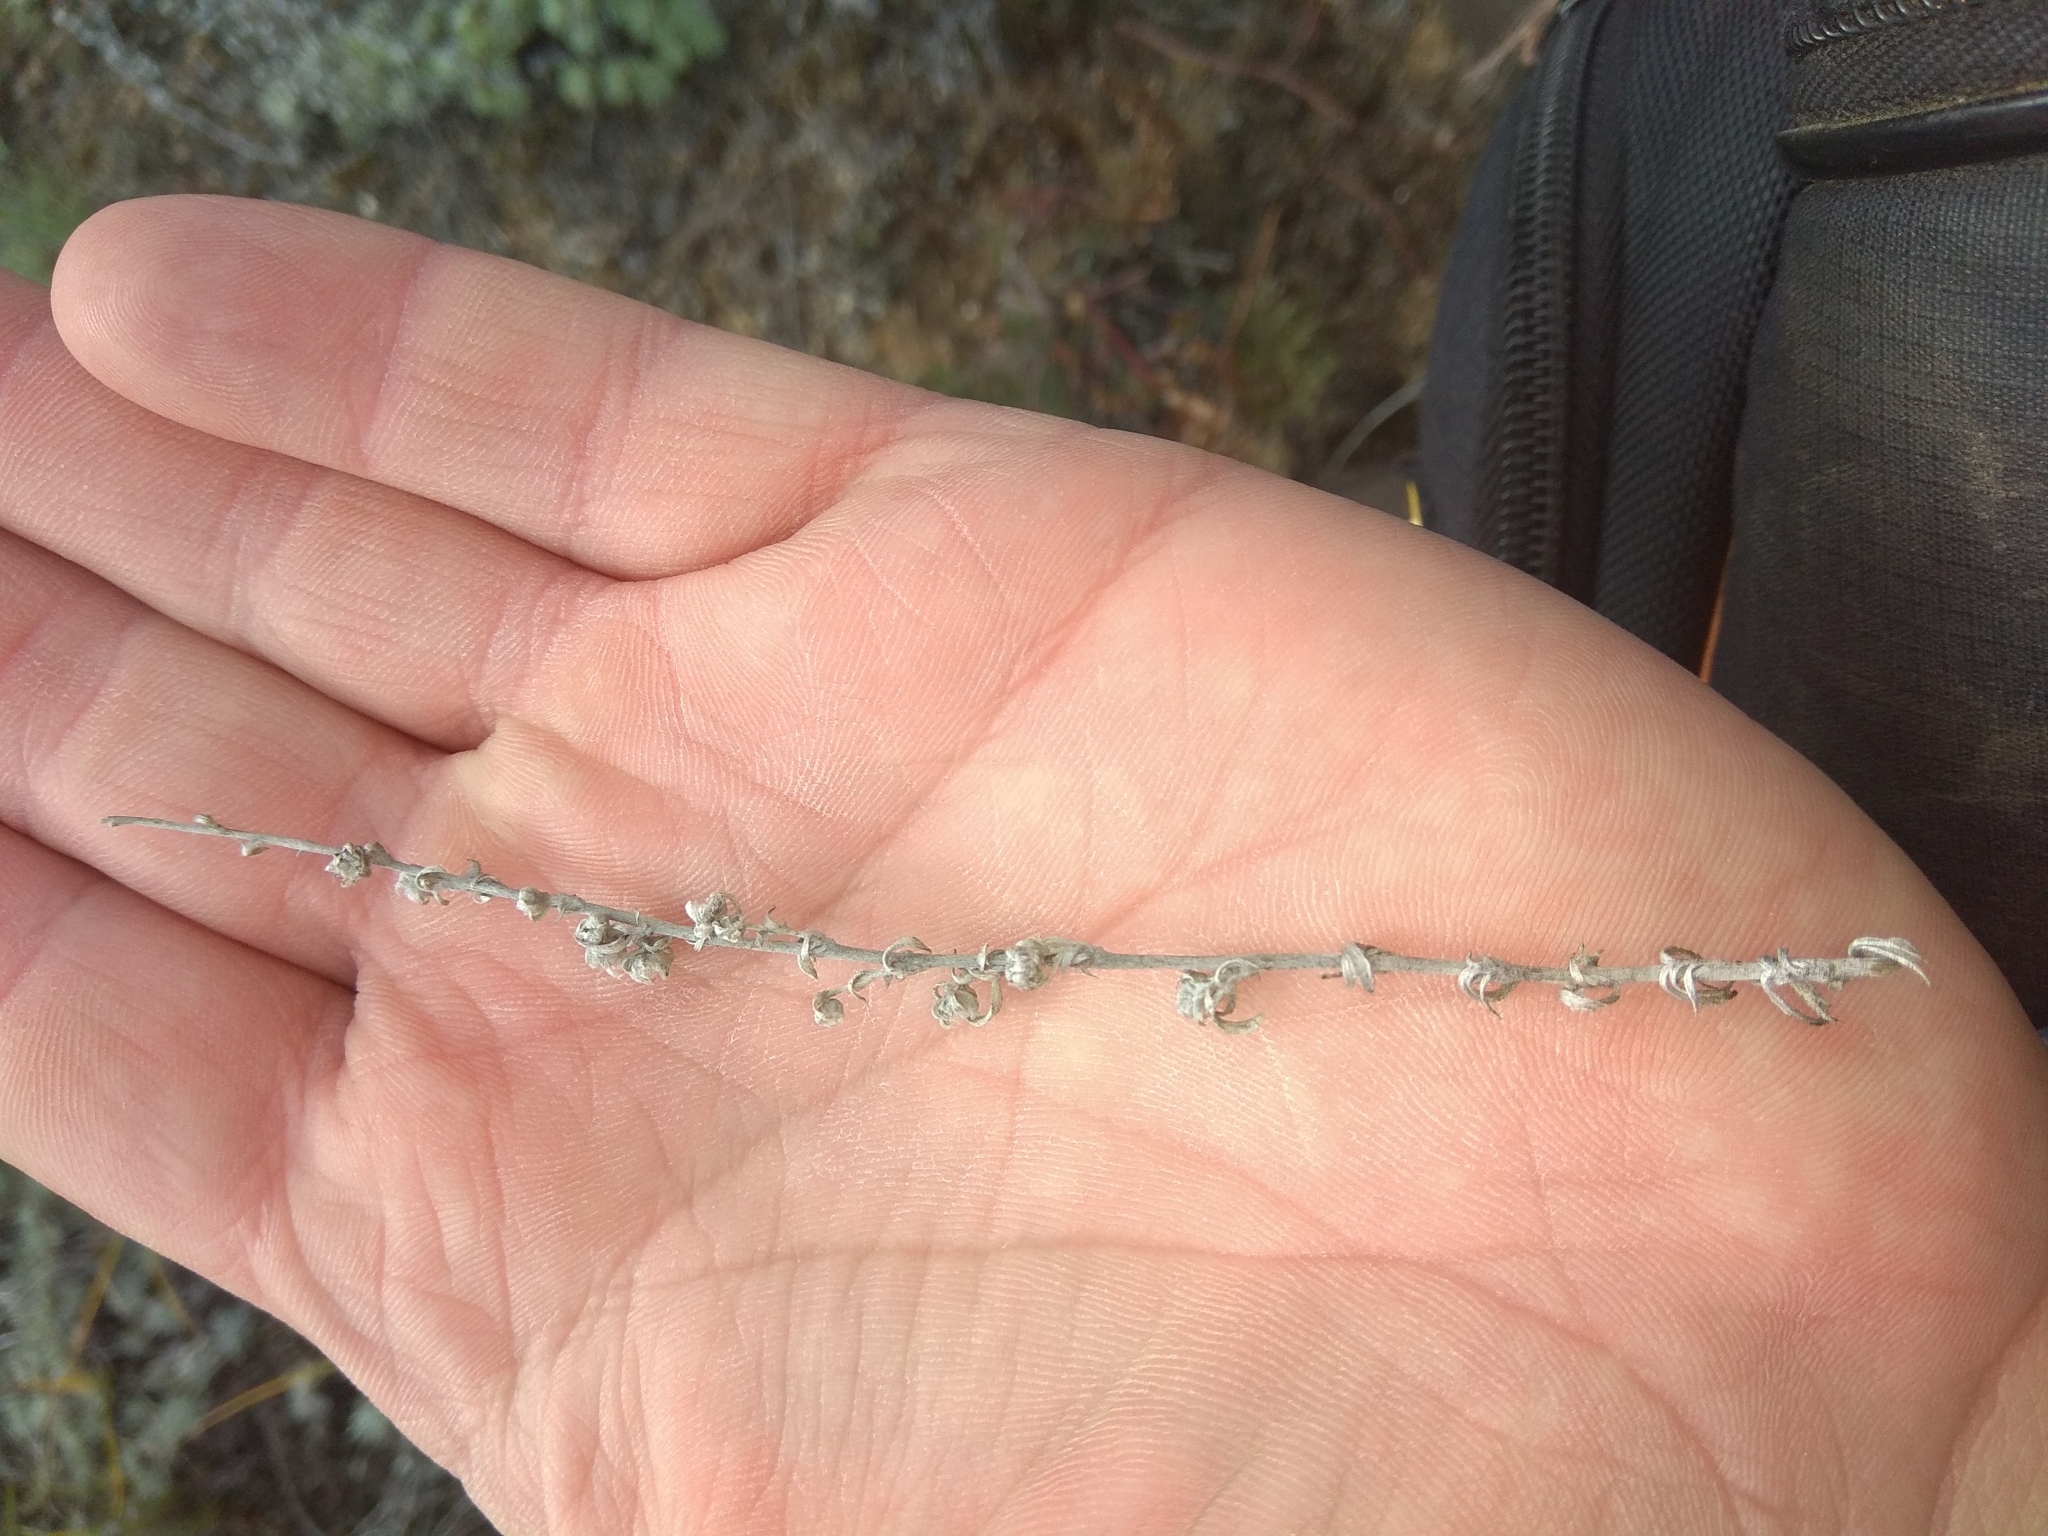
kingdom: Plantae
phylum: Tracheophyta
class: Magnoliopsida
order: Asterales
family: Asteraceae
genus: Artemisia
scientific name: Artemisia cuspidata
